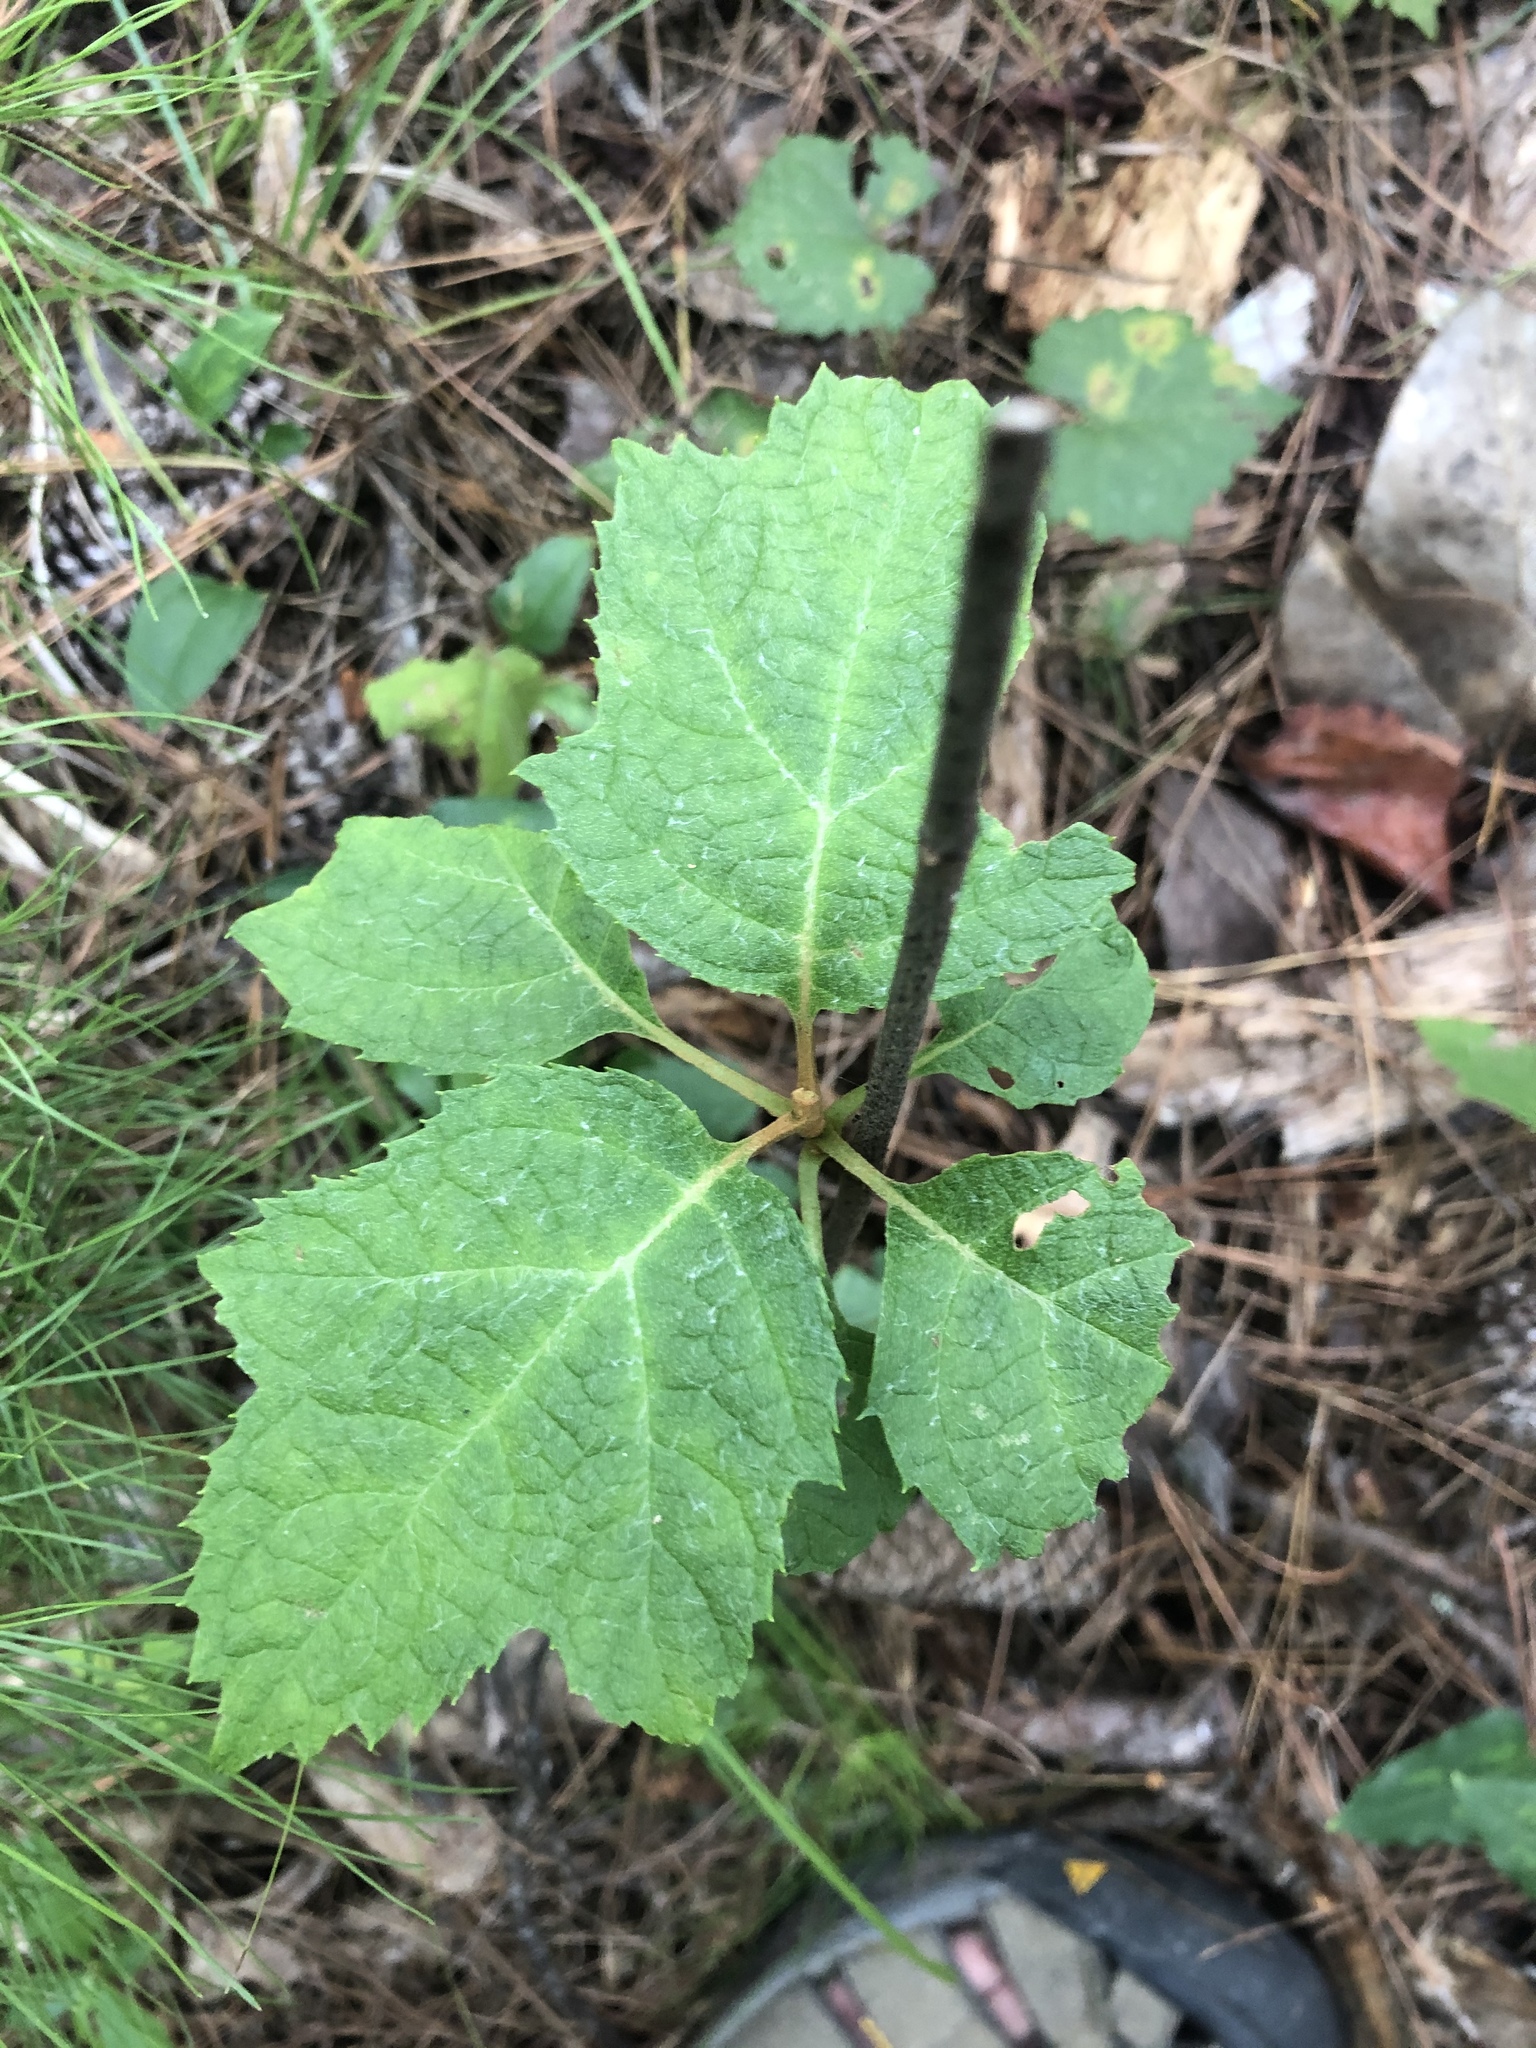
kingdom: Plantae
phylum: Tracheophyta
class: Magnoliopsida
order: Cornales
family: Hydrangeaceae
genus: Hydrangea
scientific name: Hydrangea quercifolia
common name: Oak-leaf hydrangea
